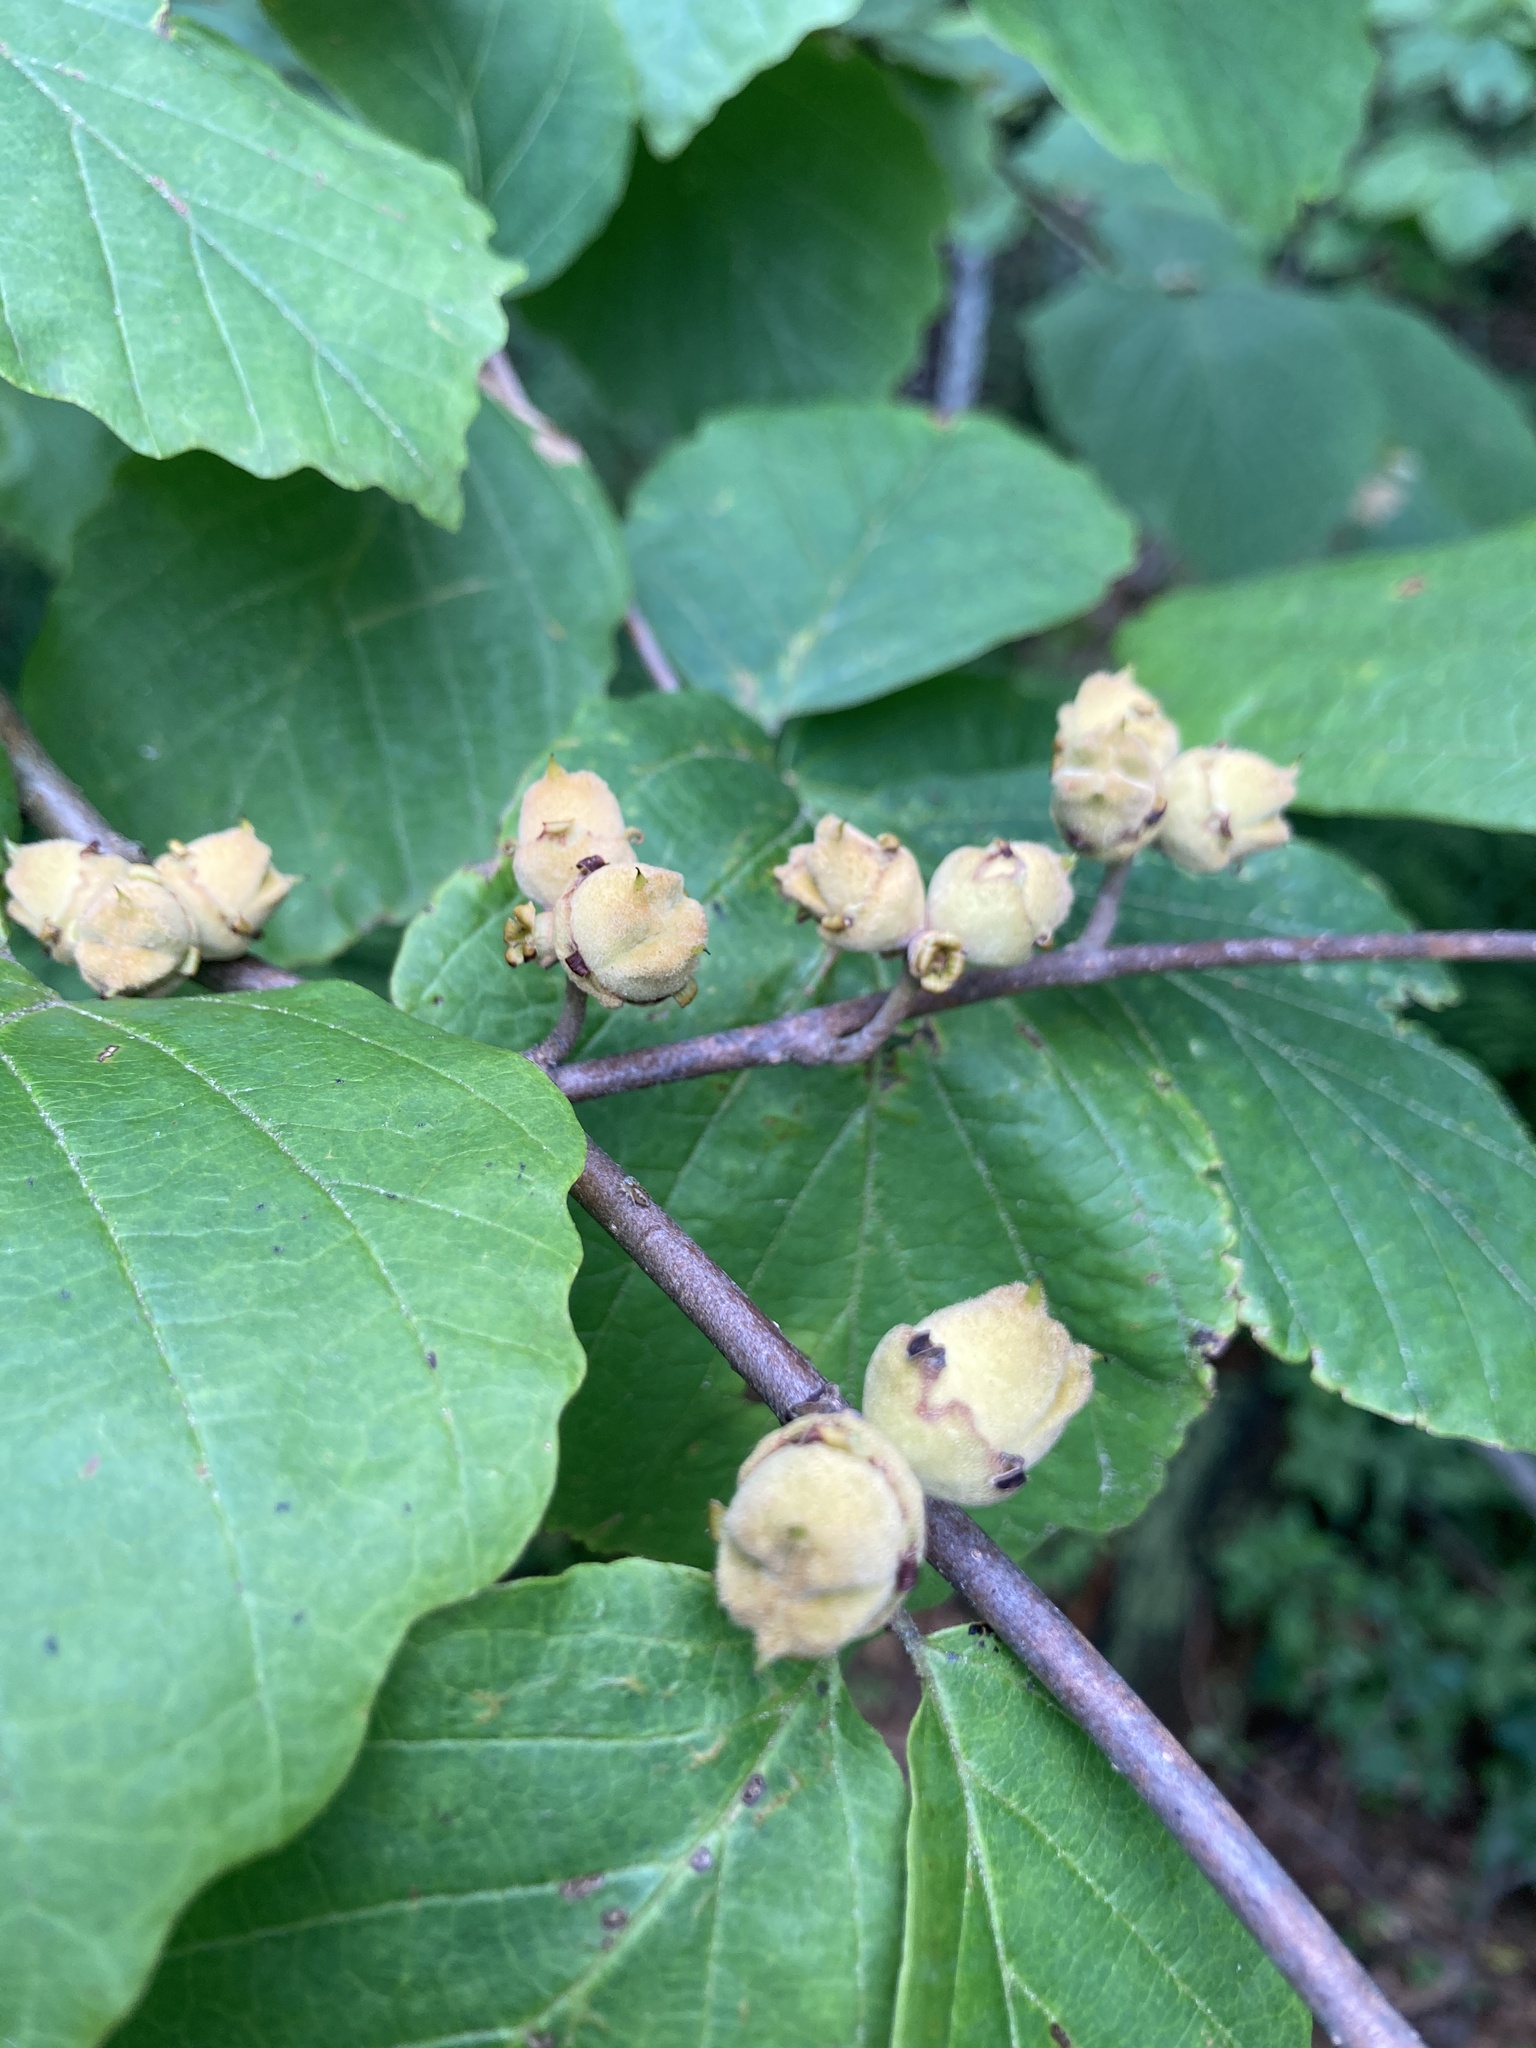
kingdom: Plantae
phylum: Tracheophyta
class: Magnoliopsida
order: Saxifragales
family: Hamamelidaceae
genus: Hamamelis
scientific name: Hamamelis virginiana
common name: Witch-hazel
